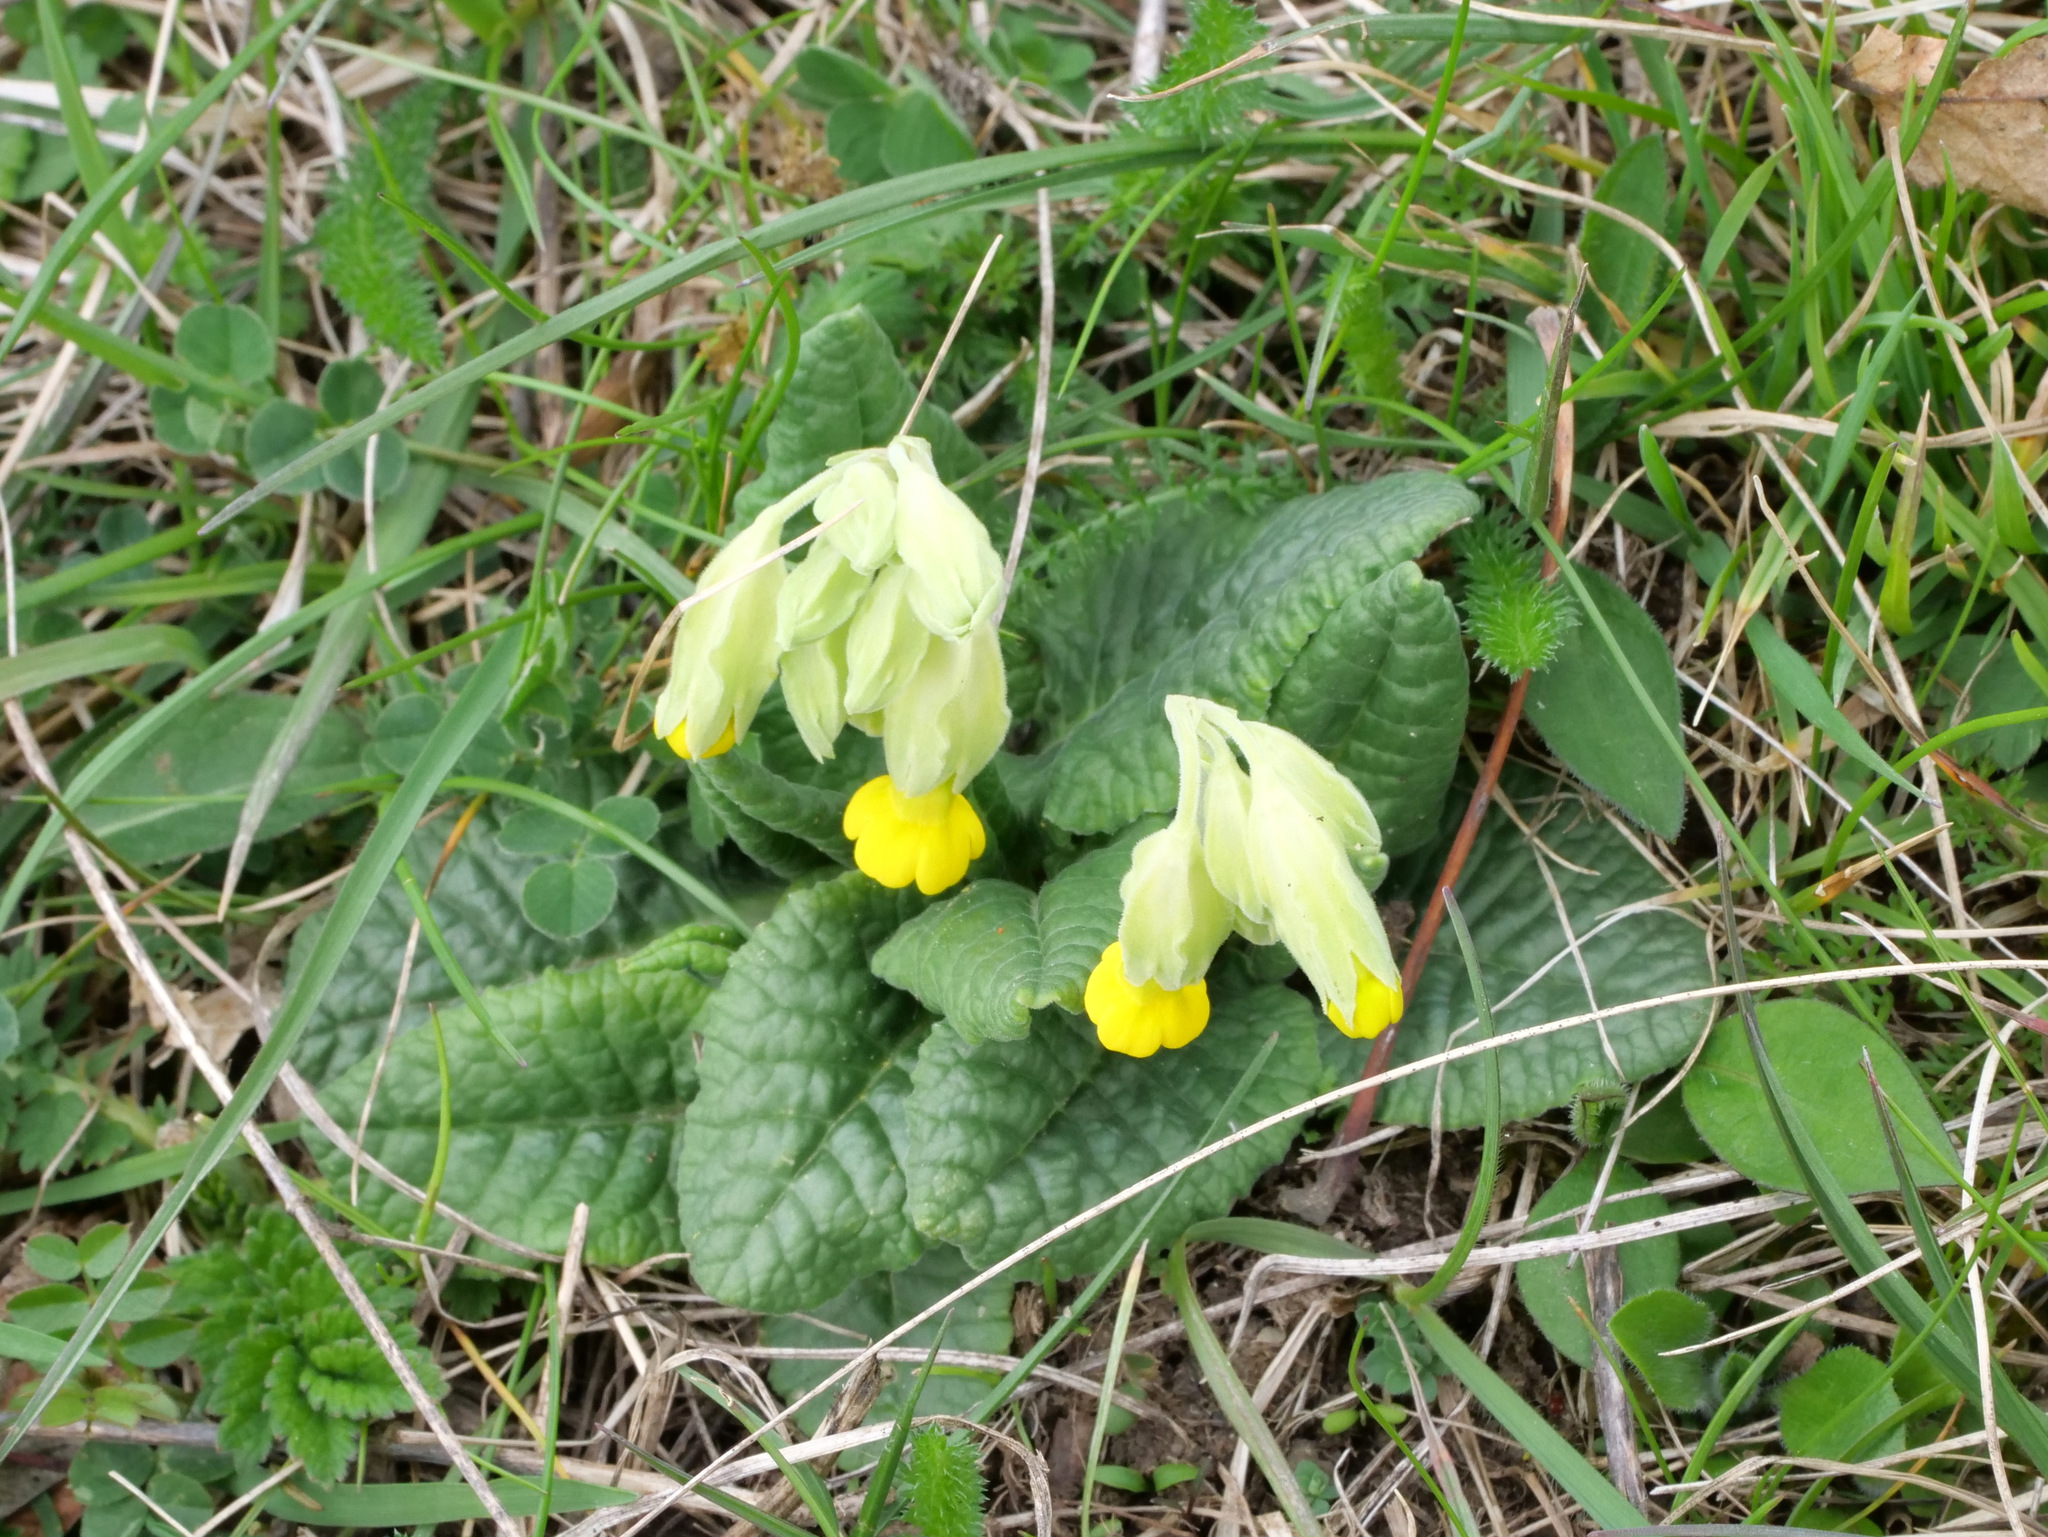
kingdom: Plantae
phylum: Tracheophyta
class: Magnoliopsida
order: Ericales
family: Primulaceae
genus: Primula
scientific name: Primula veris
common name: Cowslip
